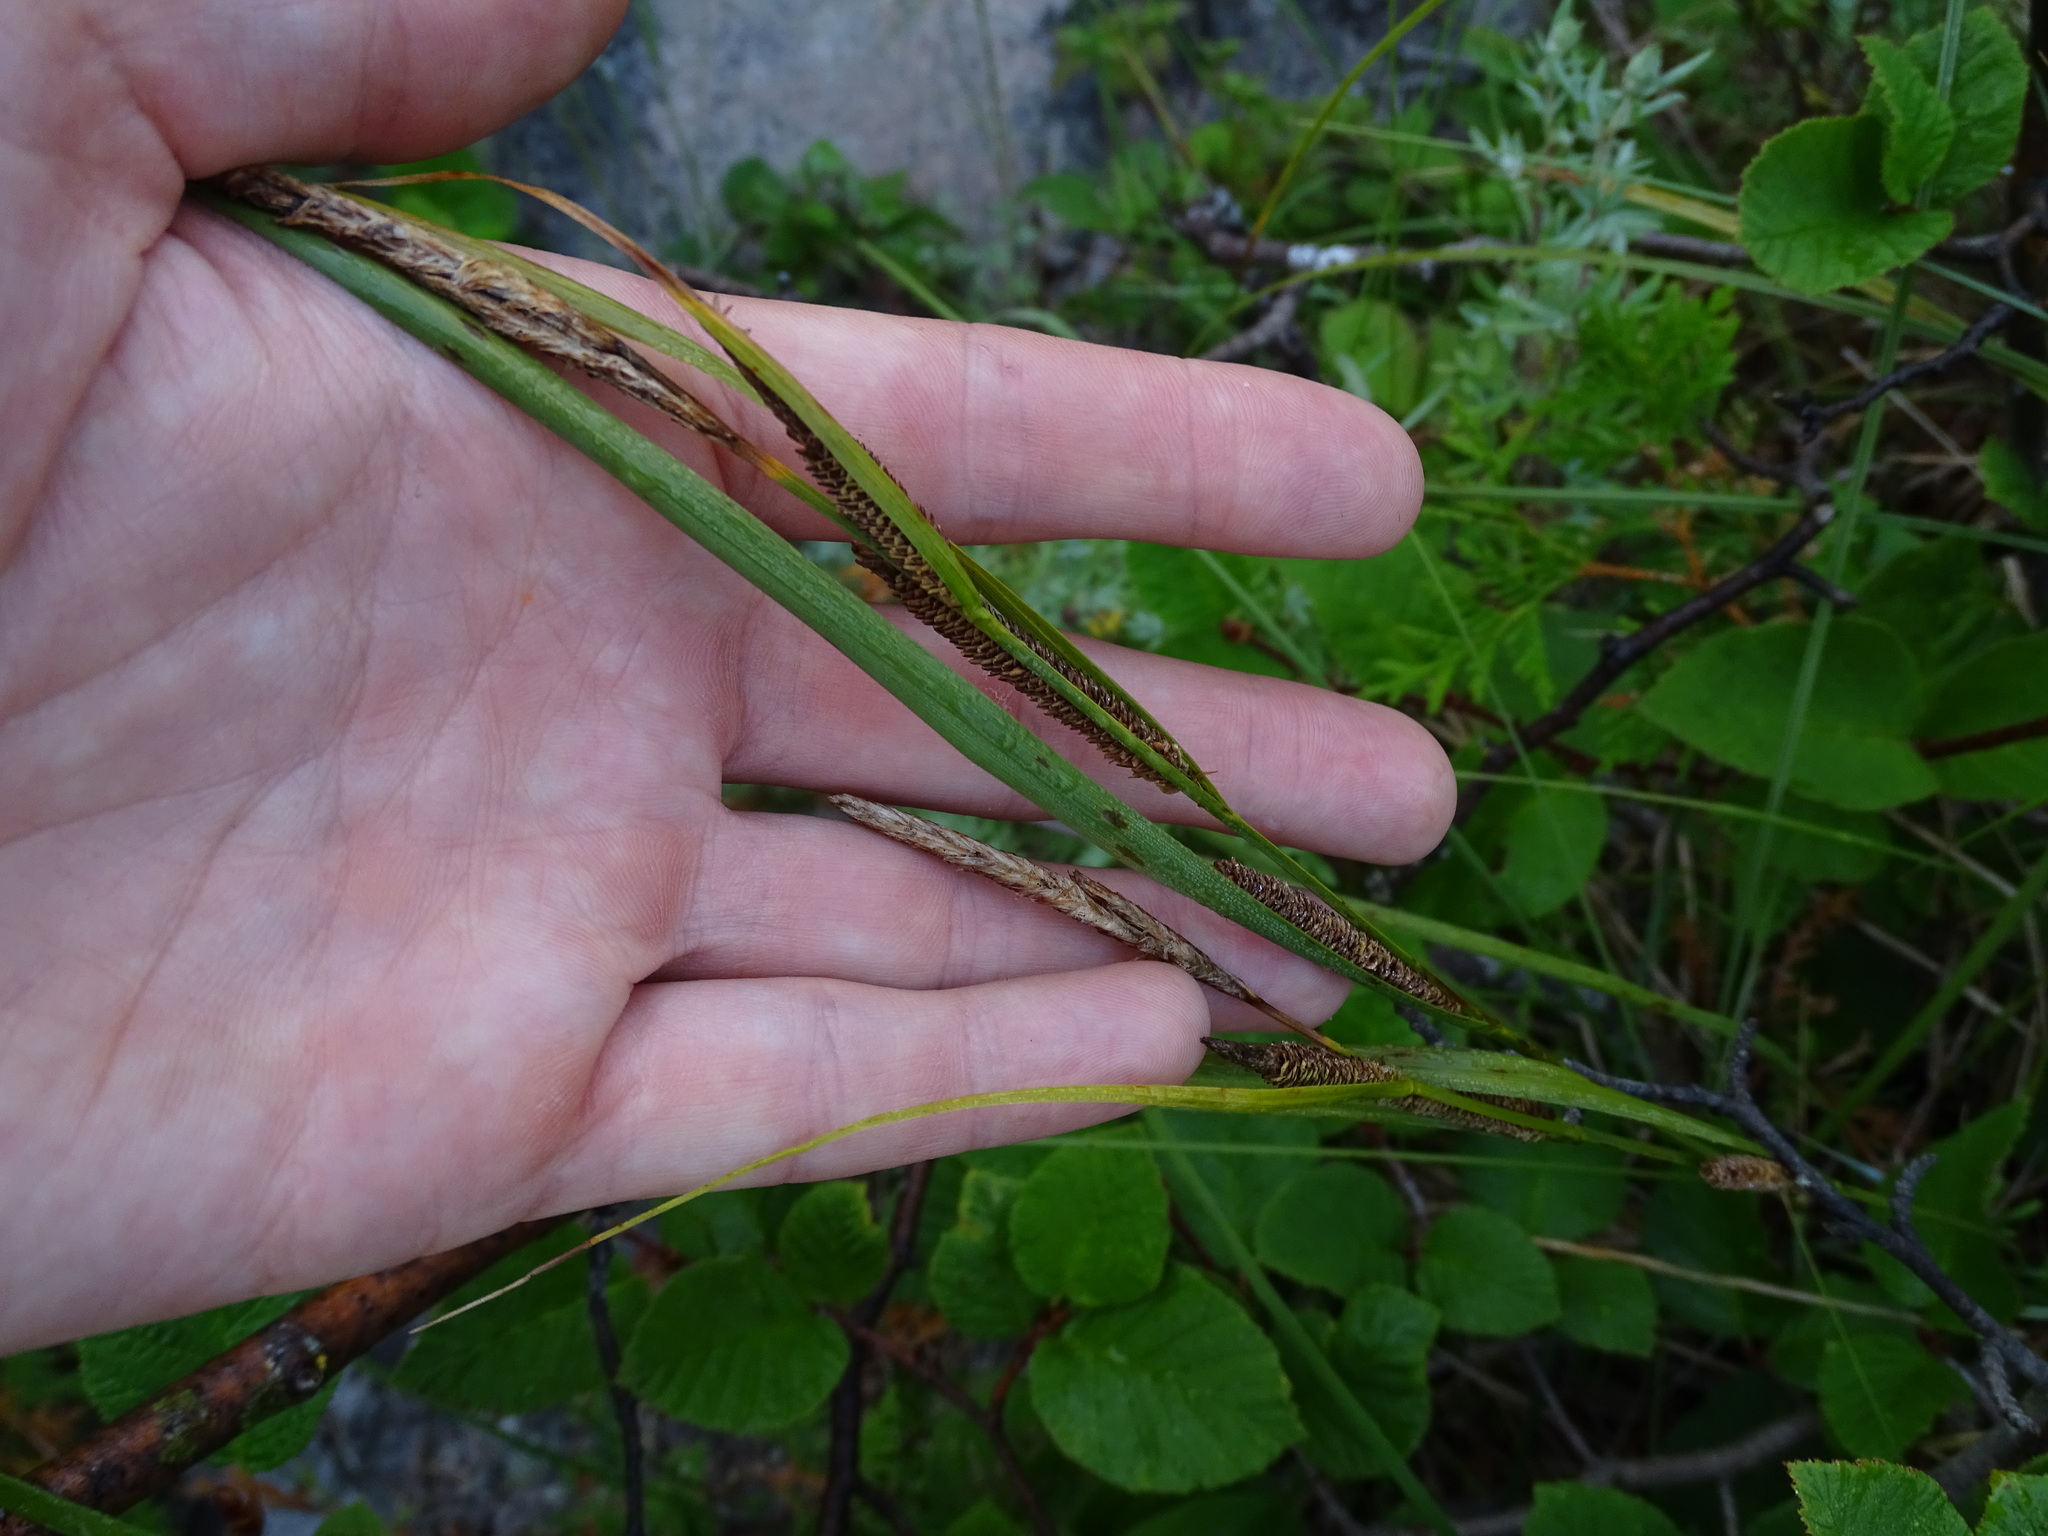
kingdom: Plantae
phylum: Tracheophyta
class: Liliopsida
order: Poales
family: Cyperaceae
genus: Carex
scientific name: Carex aquatilis
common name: Water sedge
